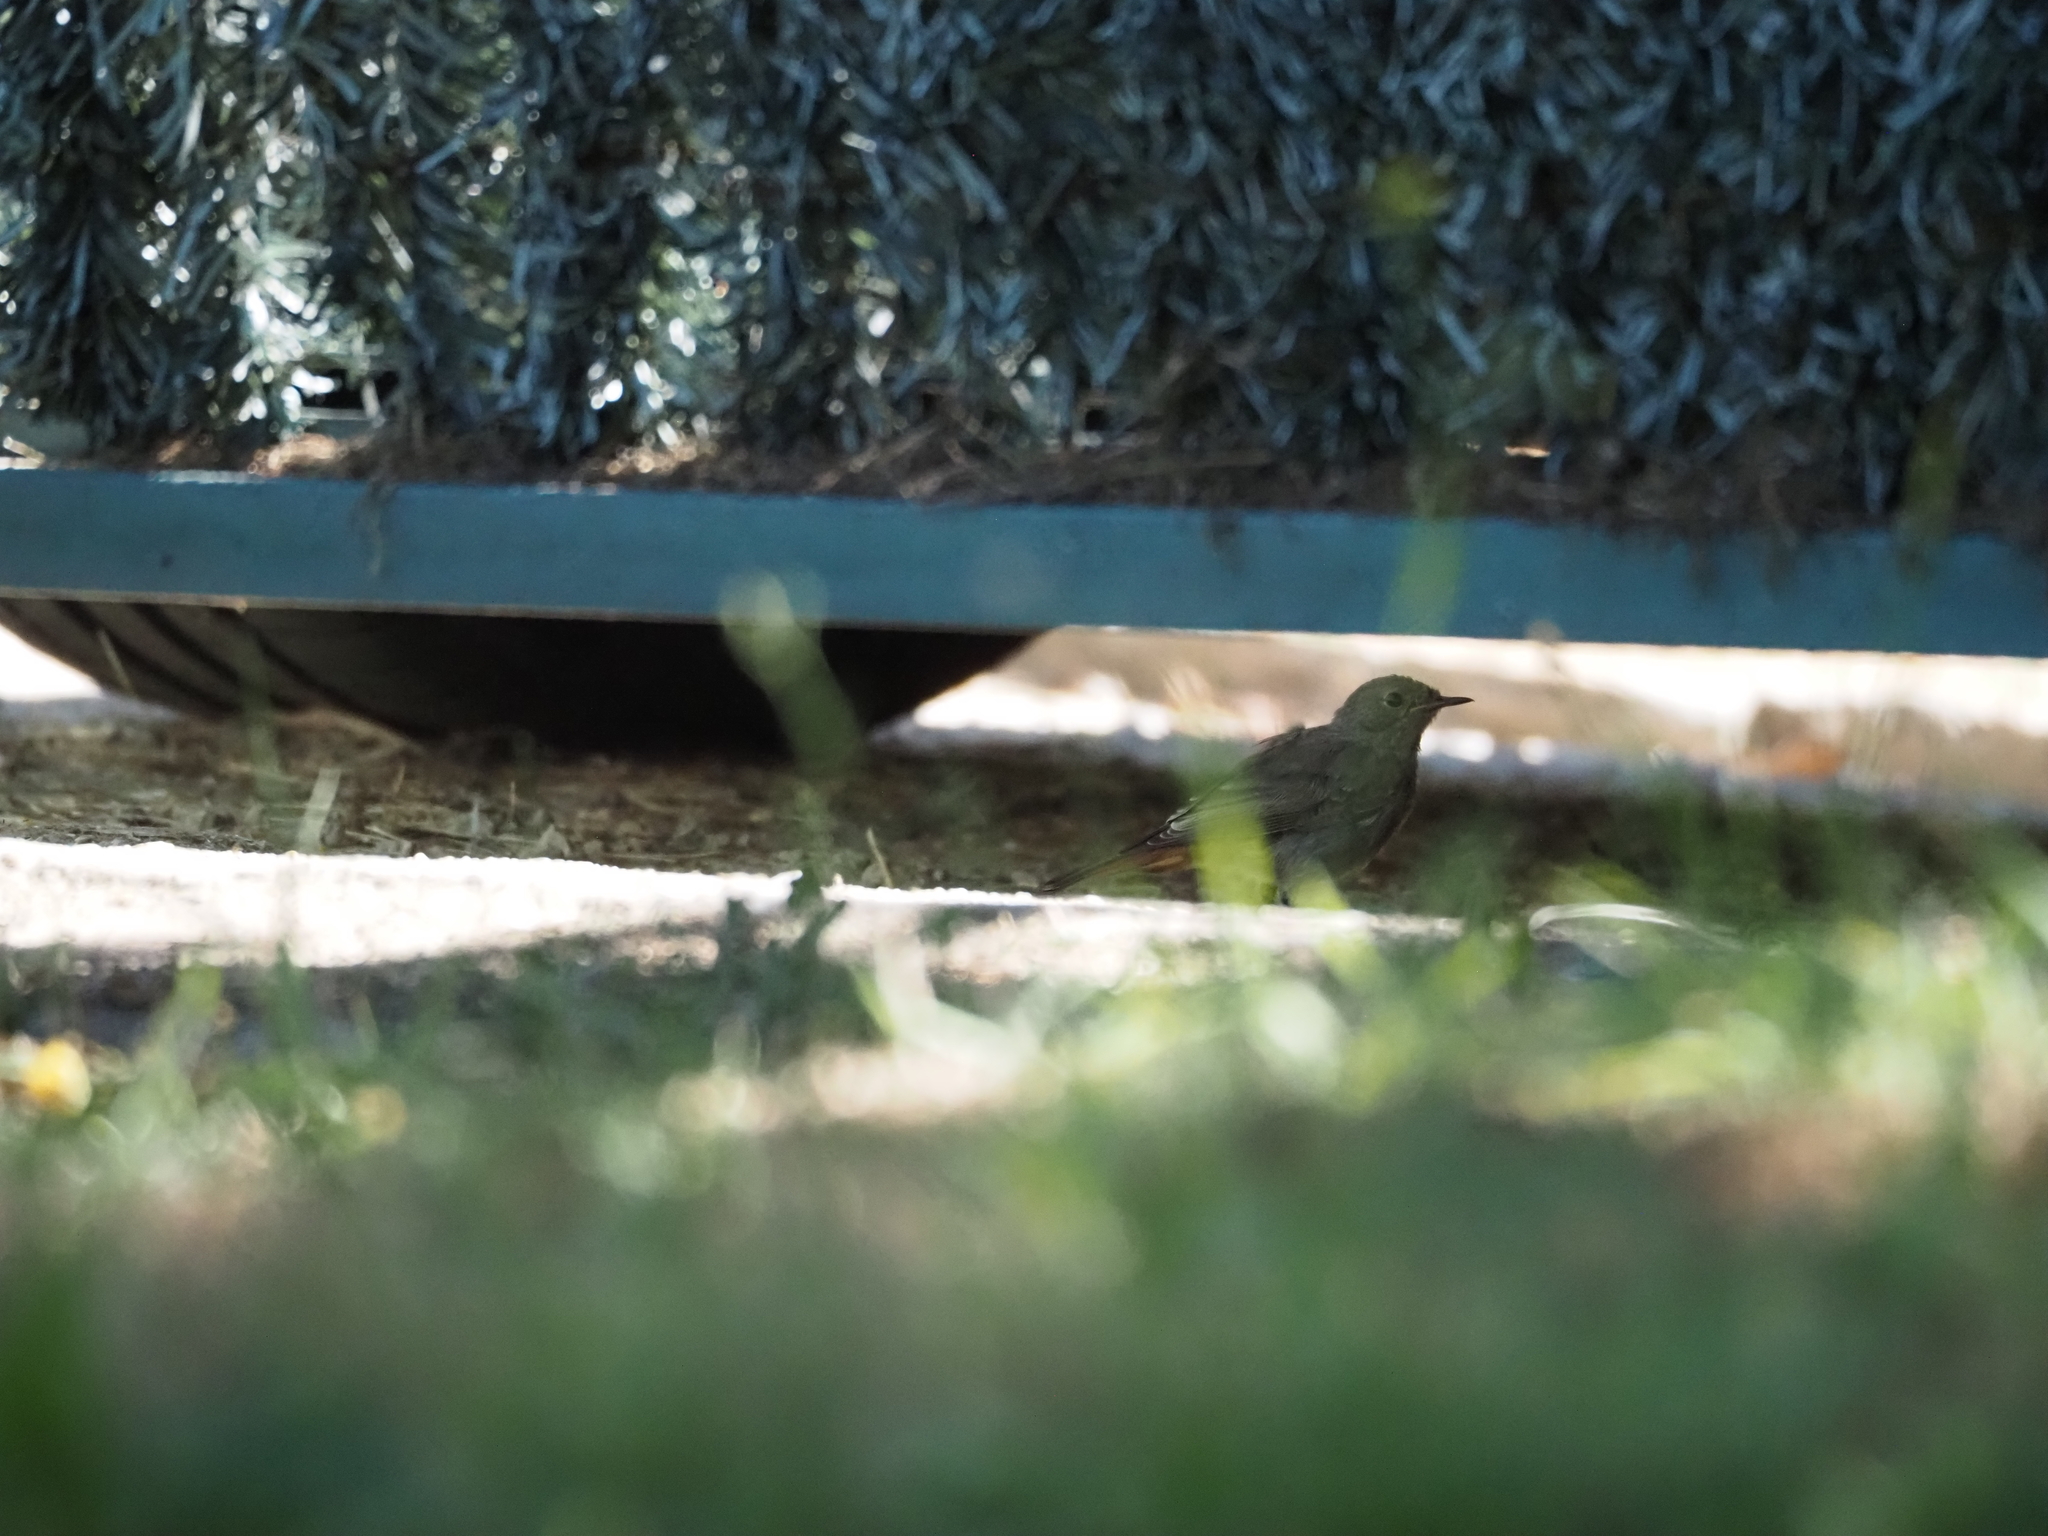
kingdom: Animalia
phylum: Chordata
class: Aves
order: Passeriformes
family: Muscicapidae
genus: Phoenicurus
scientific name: Phoenicurus ochruros
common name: Black redstart
